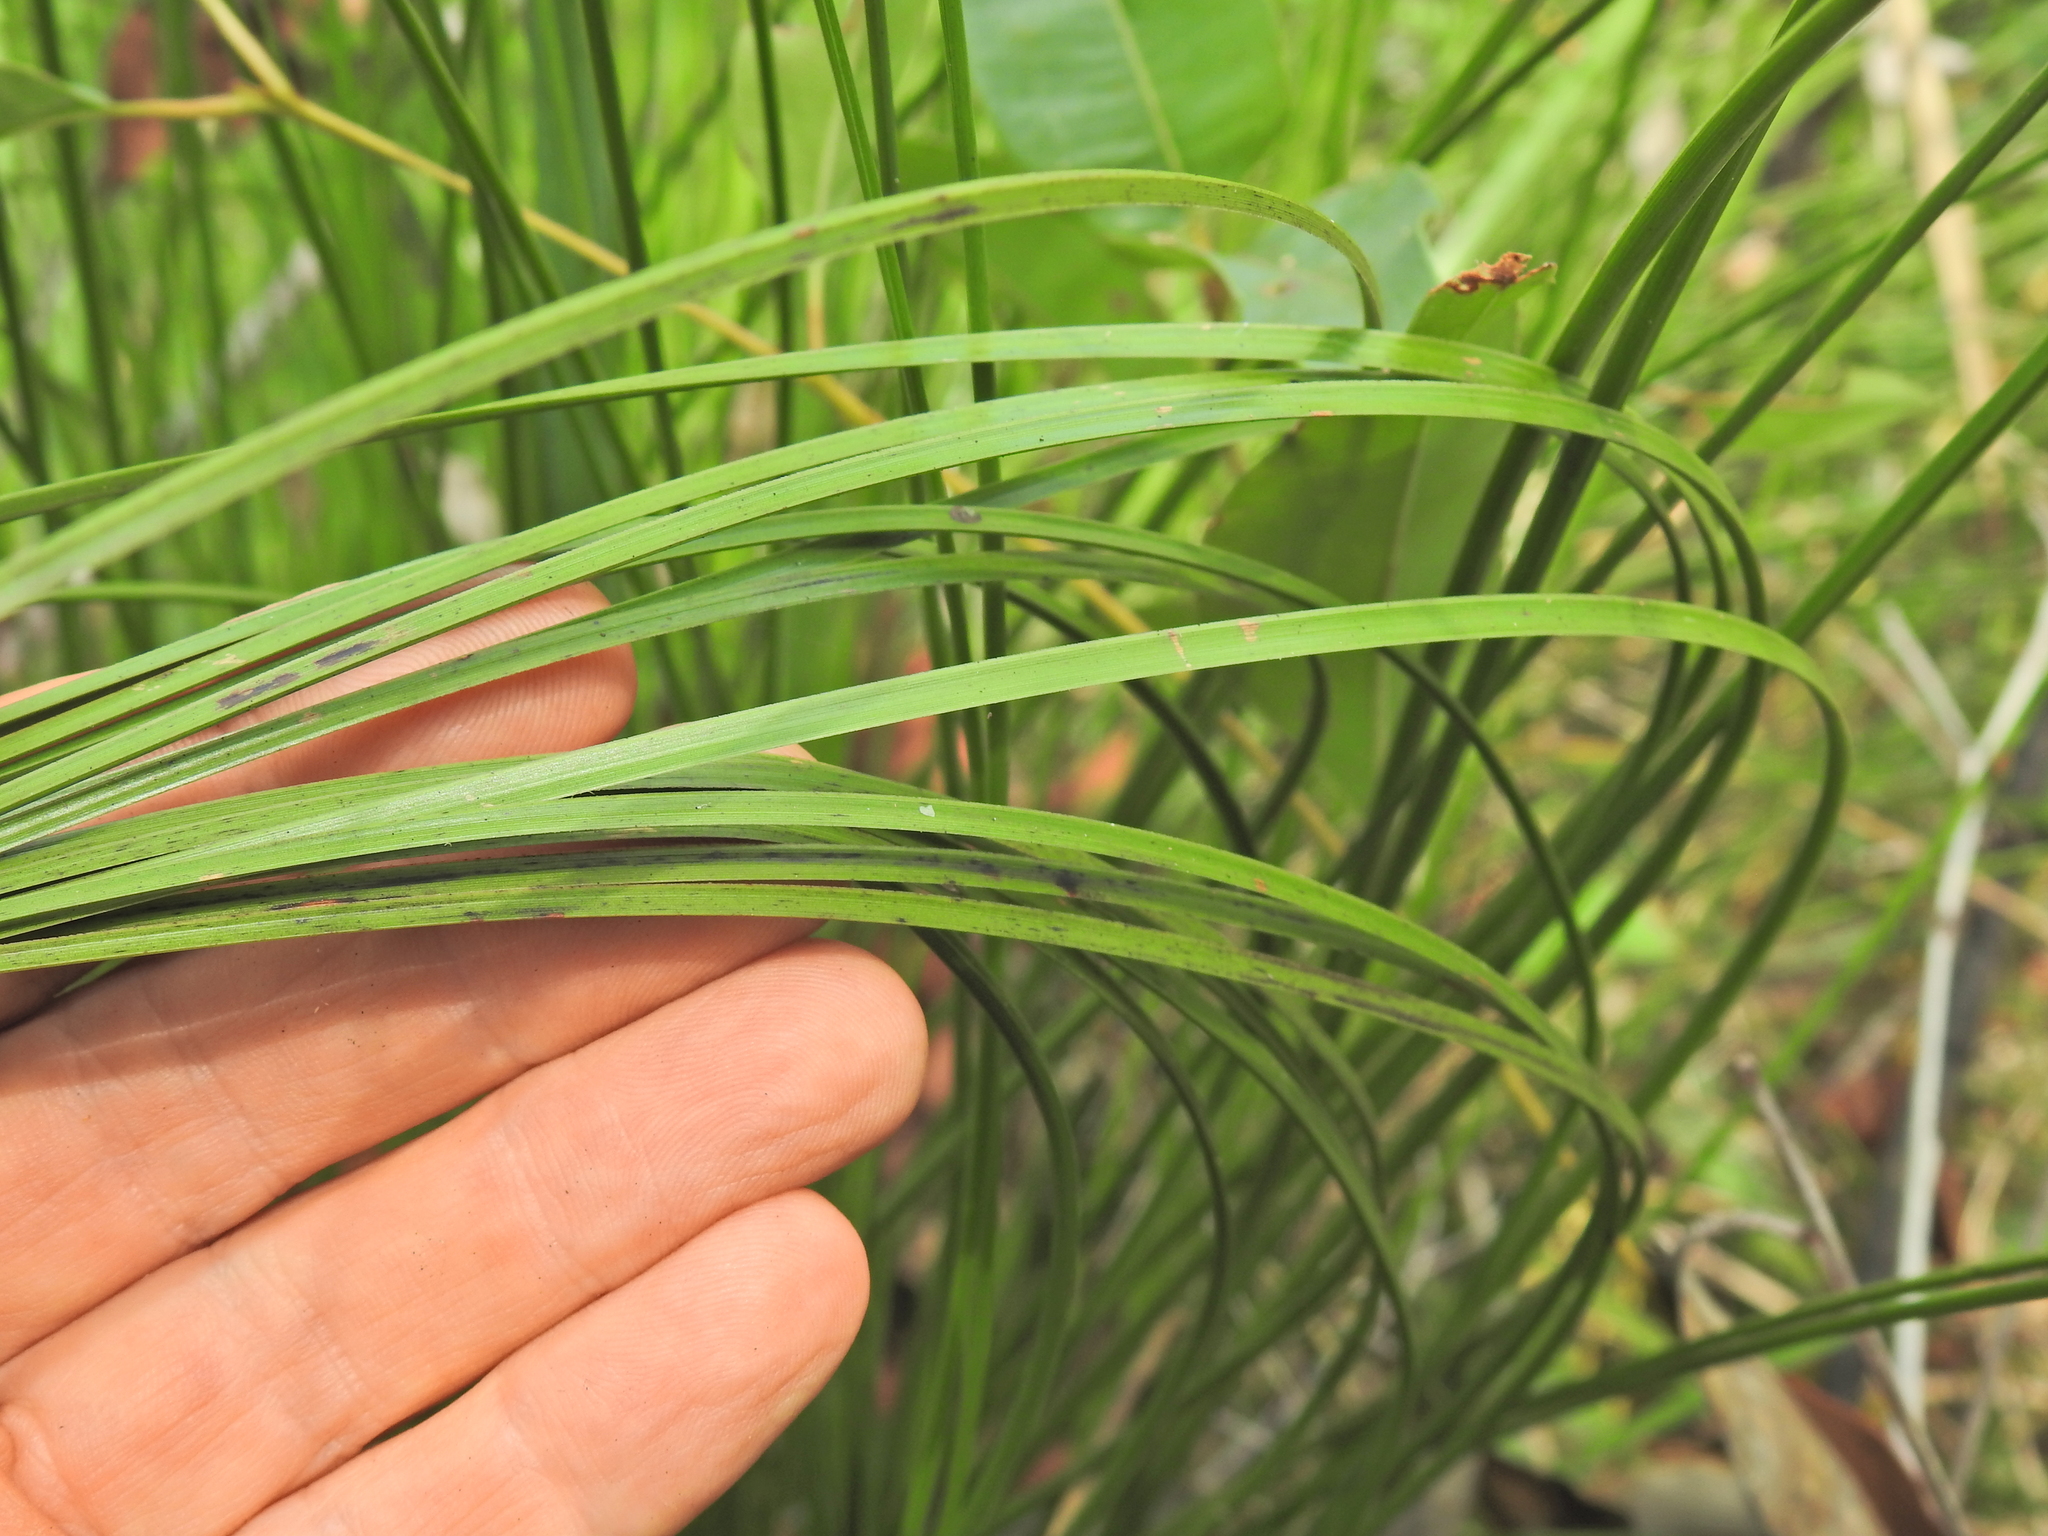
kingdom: Plantae
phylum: Tracheophyta
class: Liliopsida
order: Asparagales
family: Asphodelaceae
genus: Xanthorrhoea
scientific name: Xanthorrhoea latifolia
